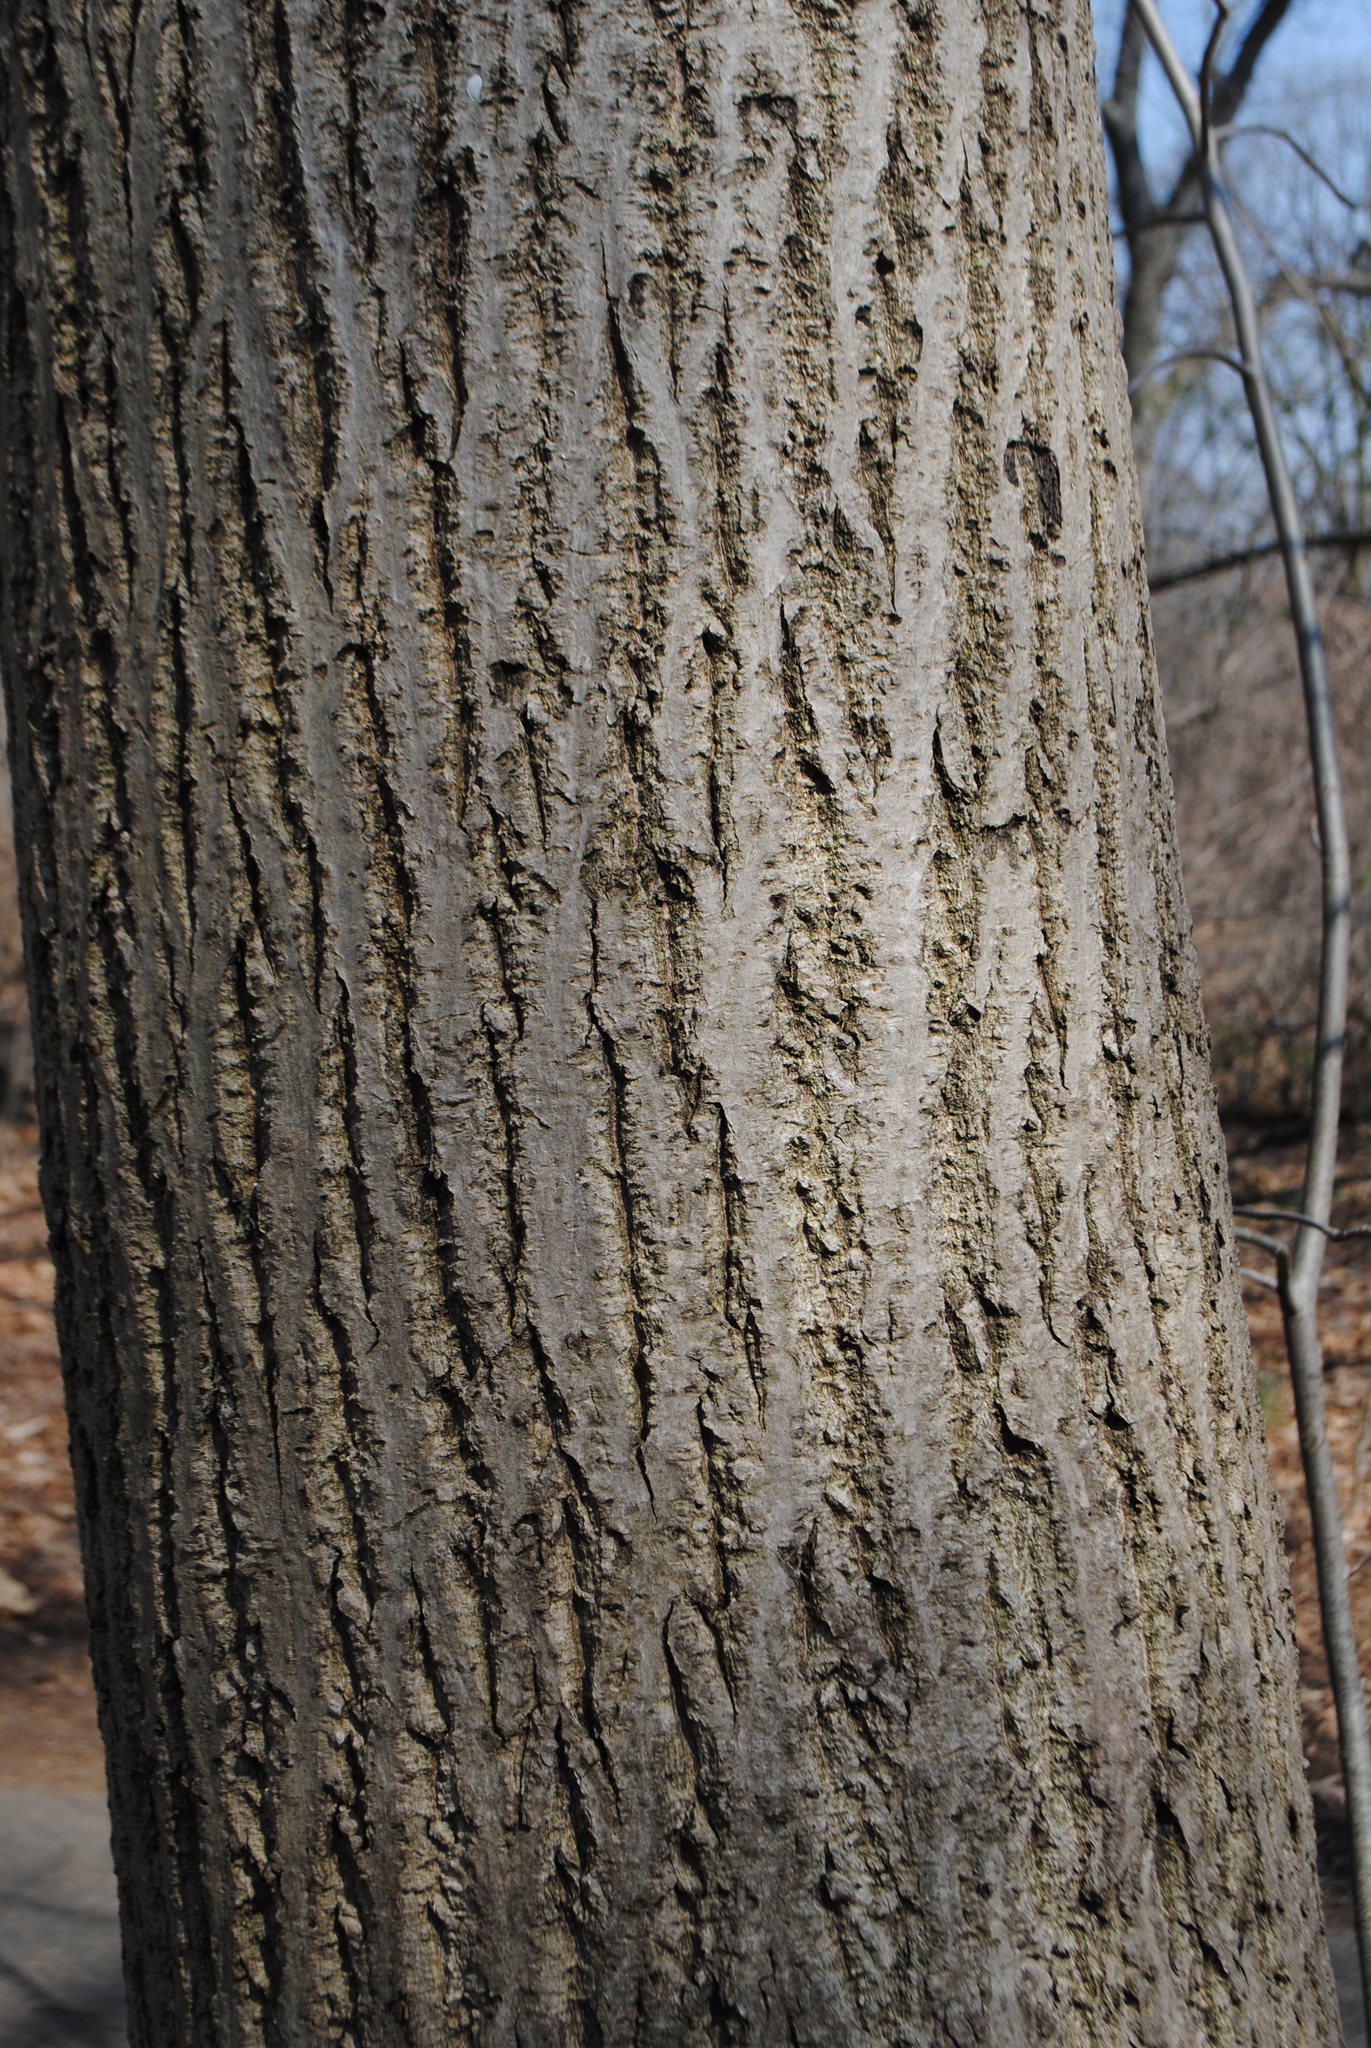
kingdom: Plantae
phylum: Tracheophyta
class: Magnoliopsida
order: Fagales
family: Juglandaceae
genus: Juglans
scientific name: Juglans cinerea
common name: Butternut
